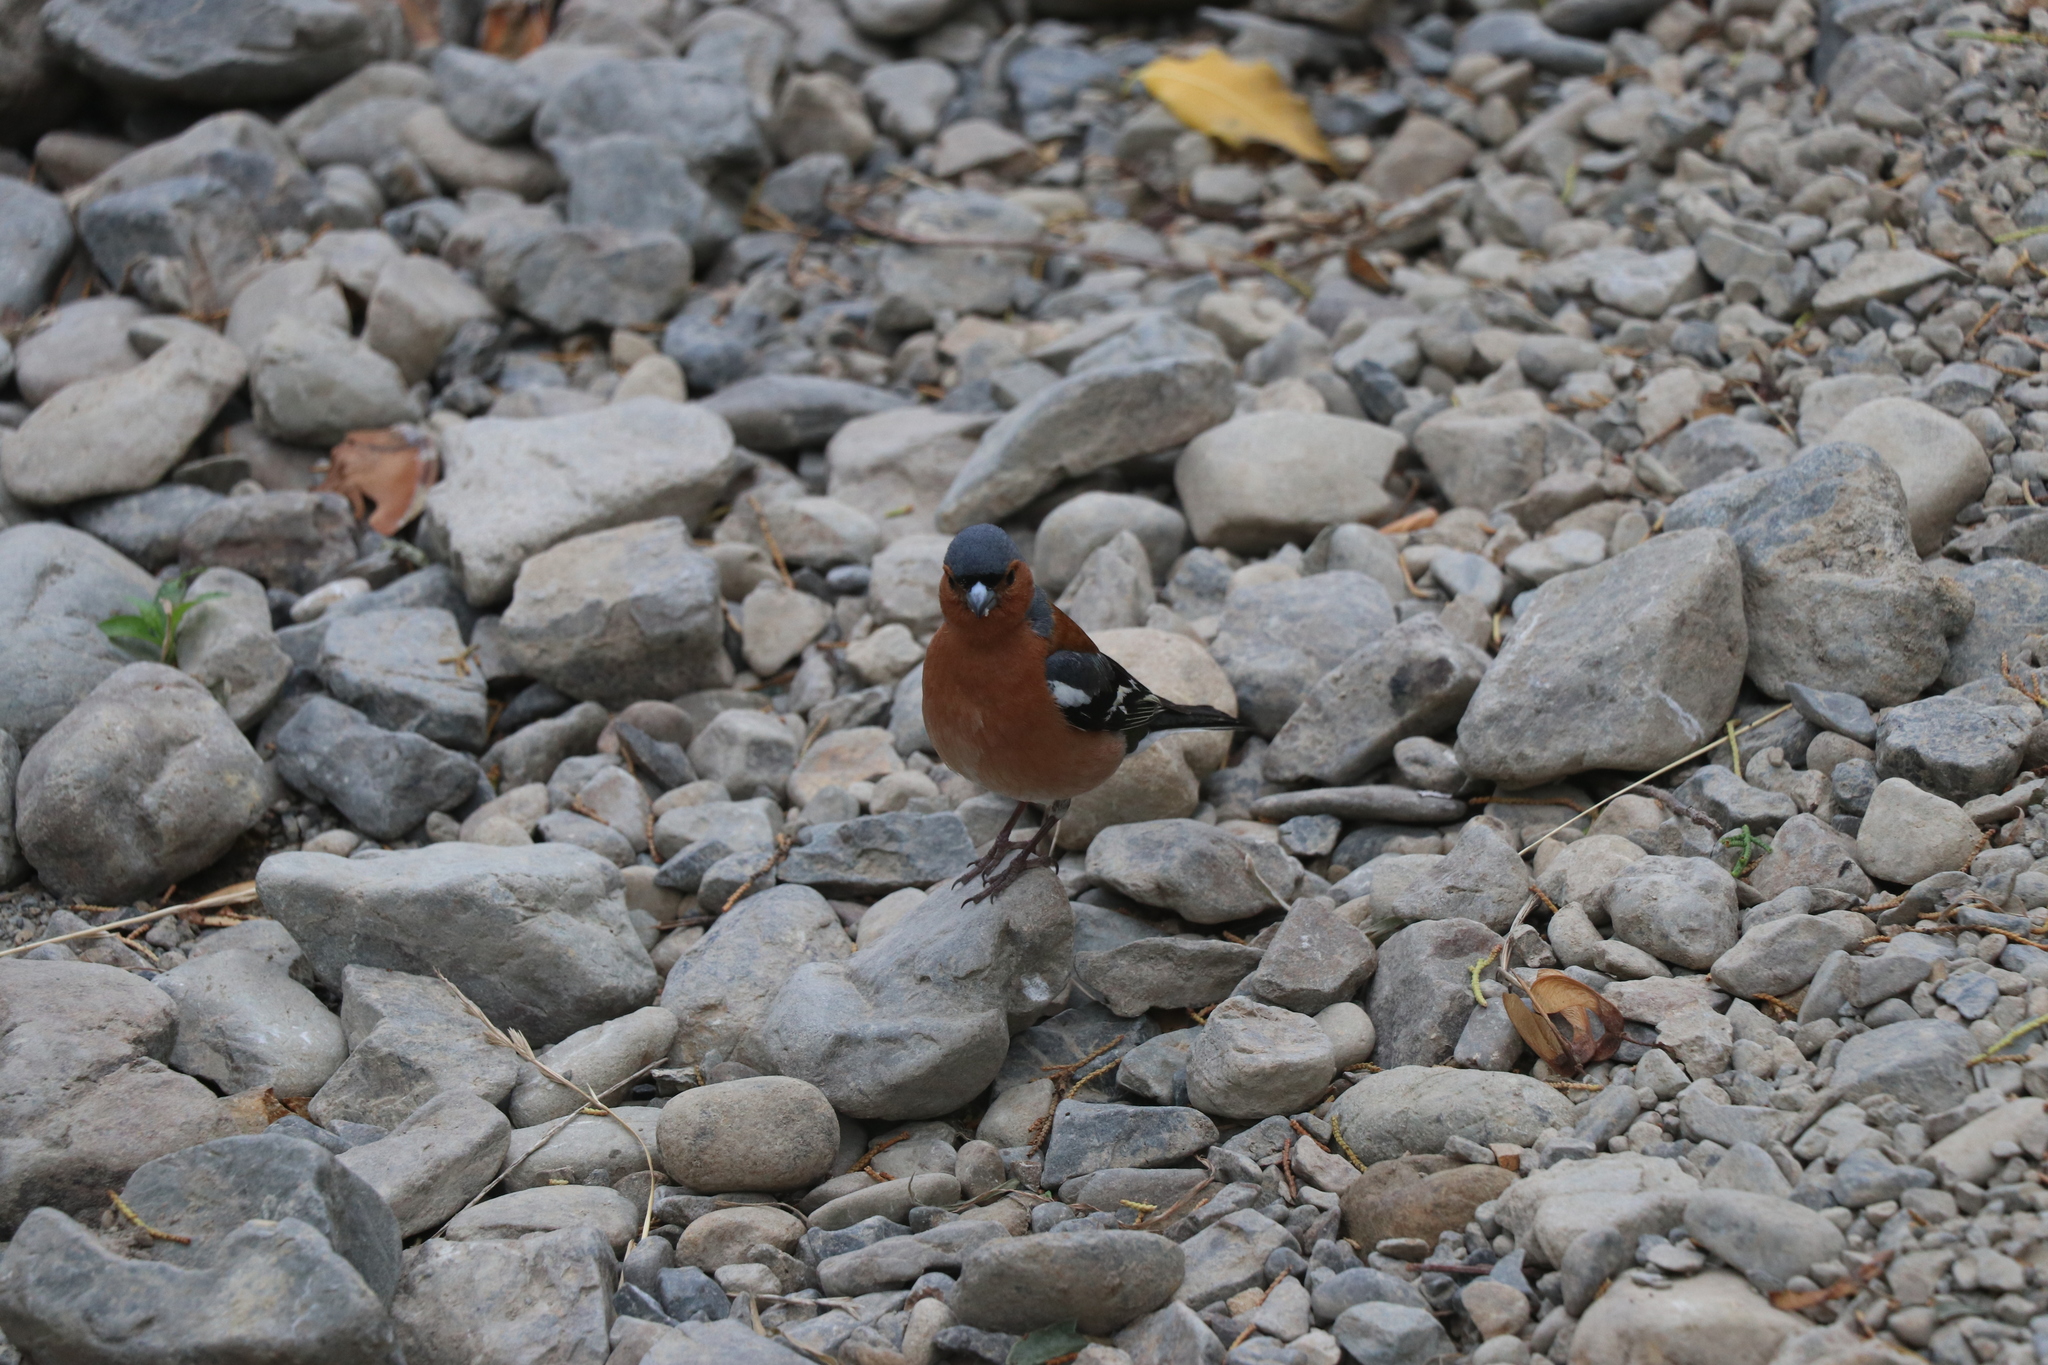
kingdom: Animalia
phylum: Chordata
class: Aves
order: Passeriformes
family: Fringillidae
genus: Fringilla
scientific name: Fringilla coelebs
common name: Common chaffinch
